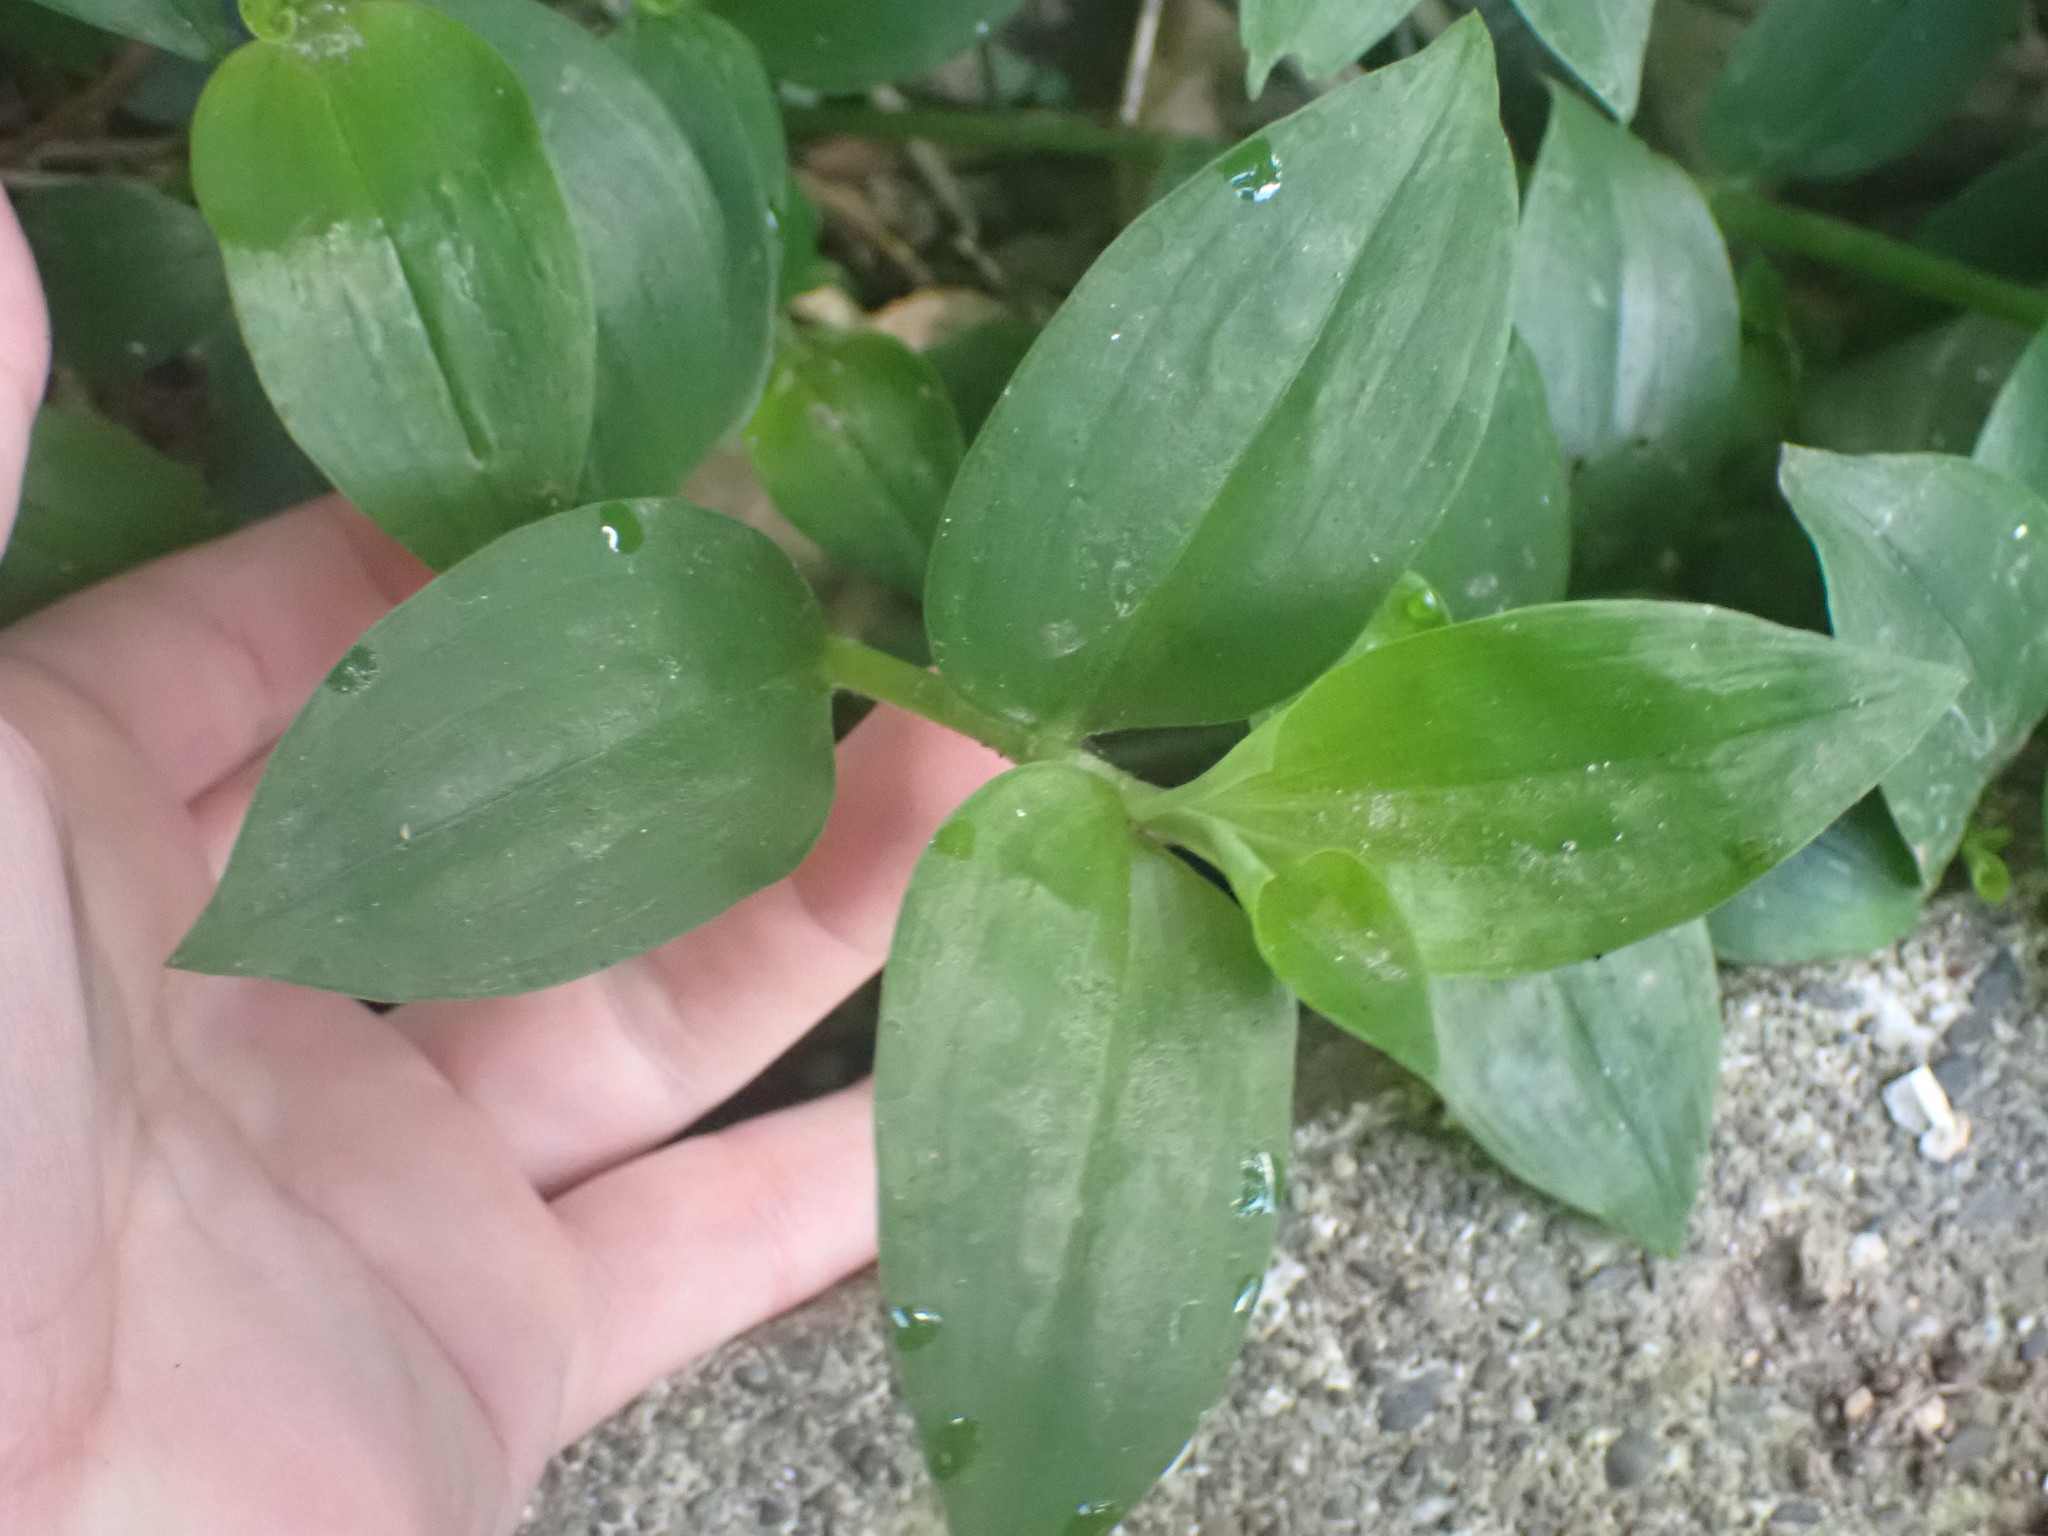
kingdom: Plantae
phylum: Tracheophyta
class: Liliopsida
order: Commelinales
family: Commelinaceae
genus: Tradescantia
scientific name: Tradescantia fluminensis
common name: Wandering-jew
